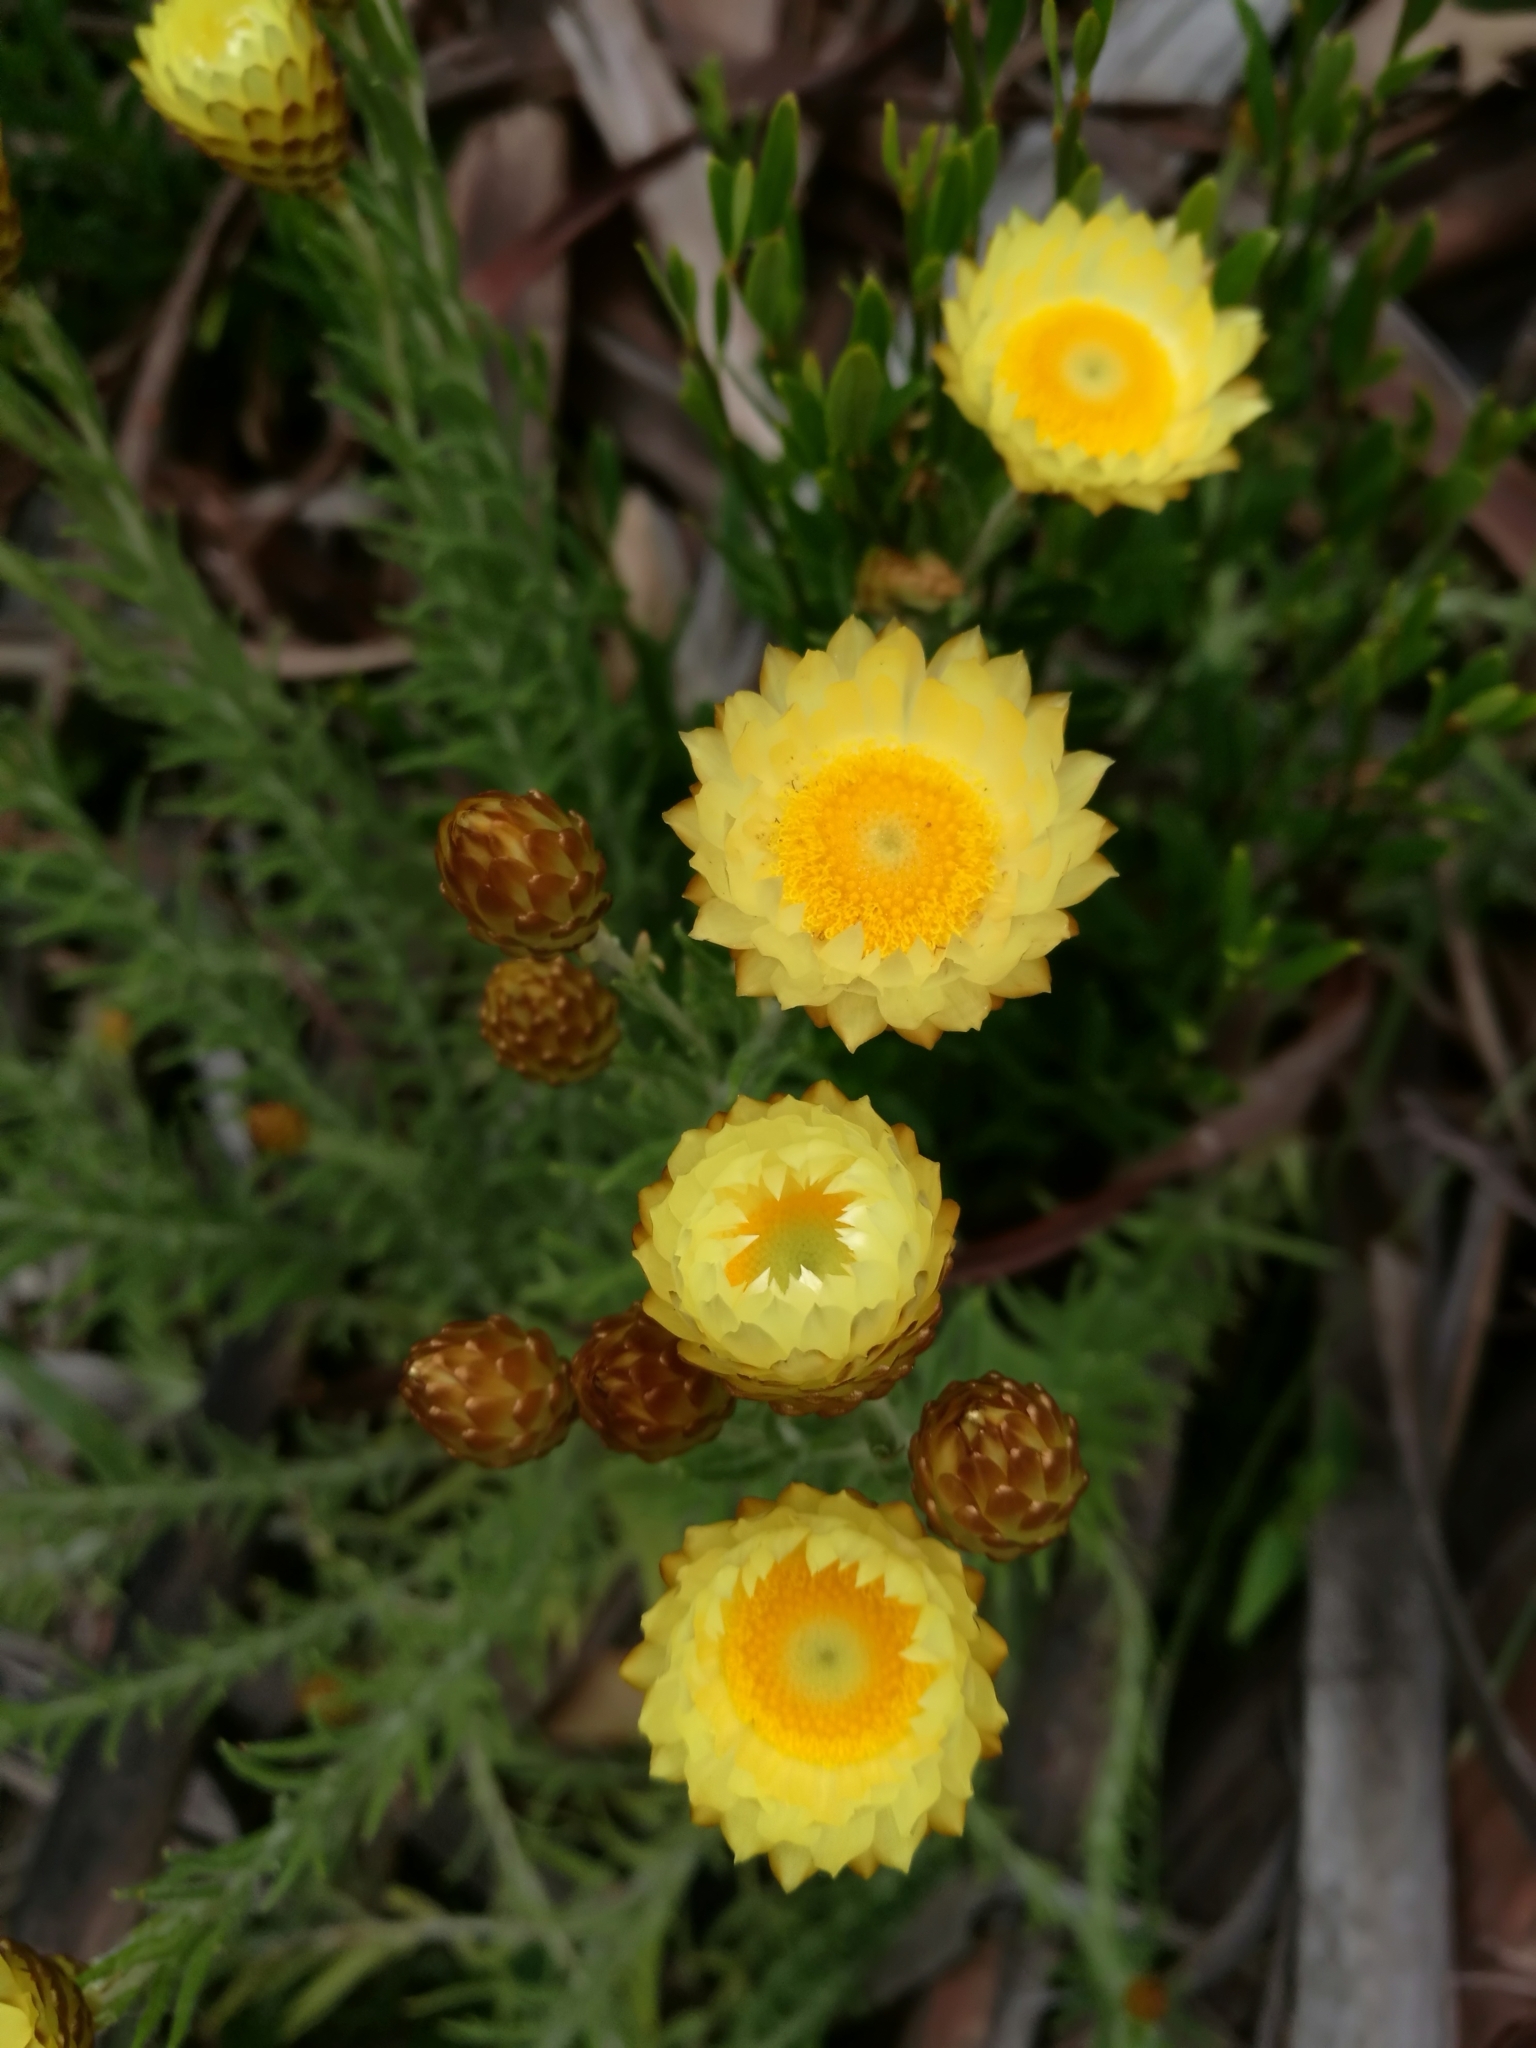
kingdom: Plantae
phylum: Tracheophyta
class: Magnoliopsida
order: Asterales
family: Asteraceae
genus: Helichrysum
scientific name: Helichrysum herbaceum
